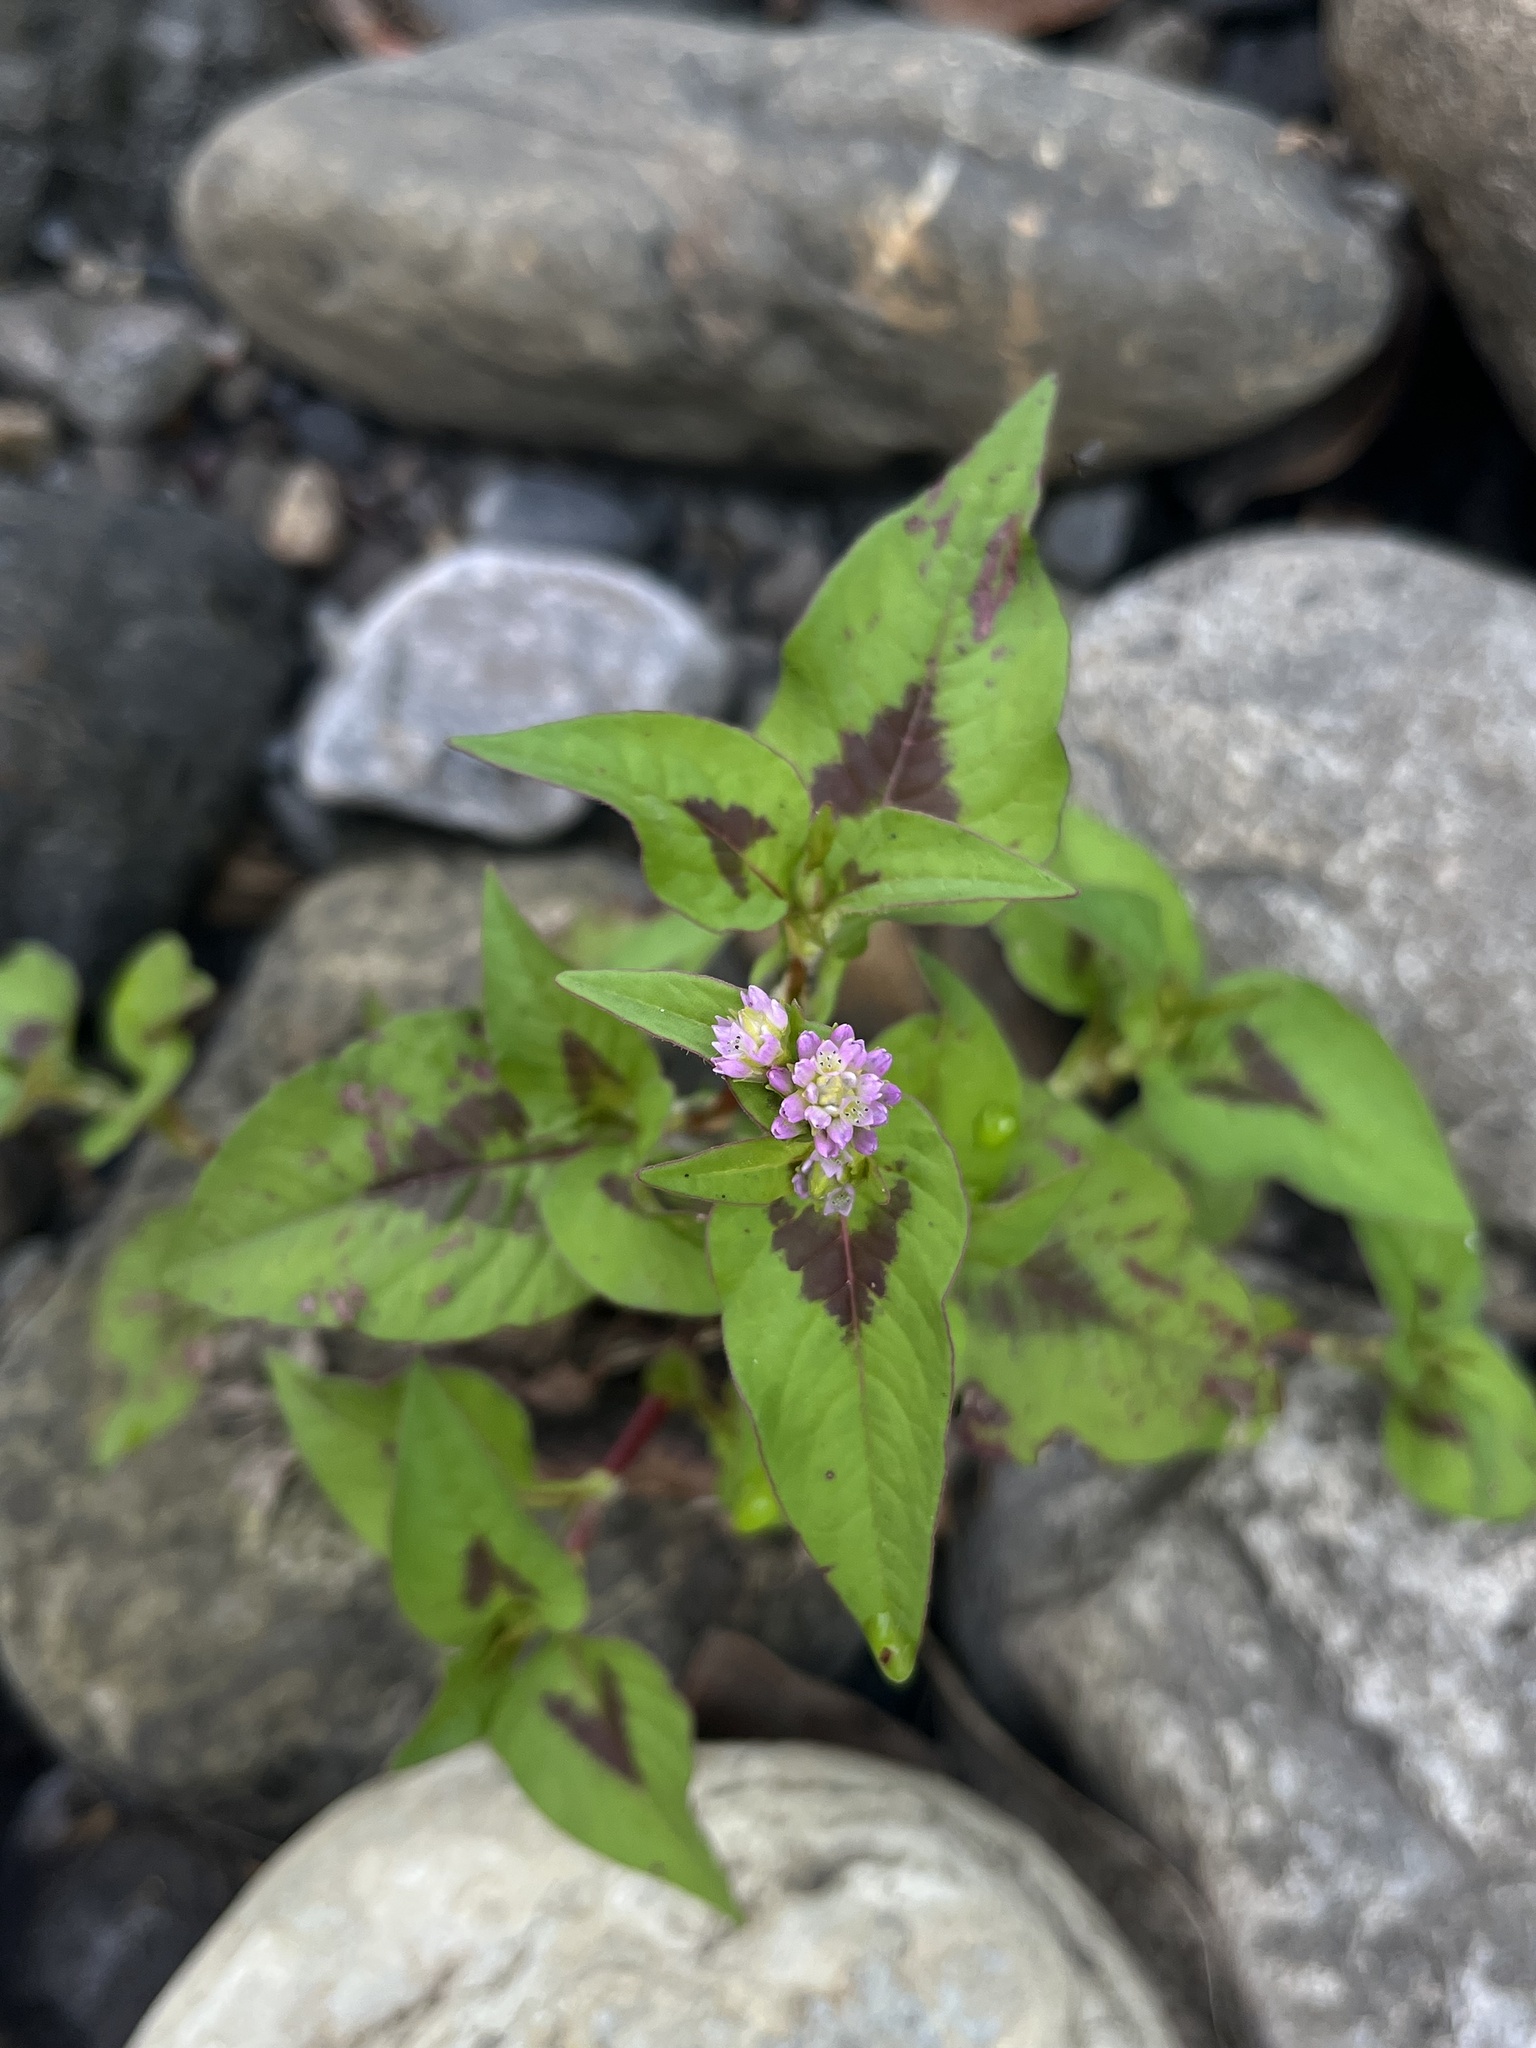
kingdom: Plantae
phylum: Tracheophyta
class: Magnoliopsida
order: Caryophyllales
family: Polygonaceae
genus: Persicaria
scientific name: Persicaria nepalensis
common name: Nepal persicaria
